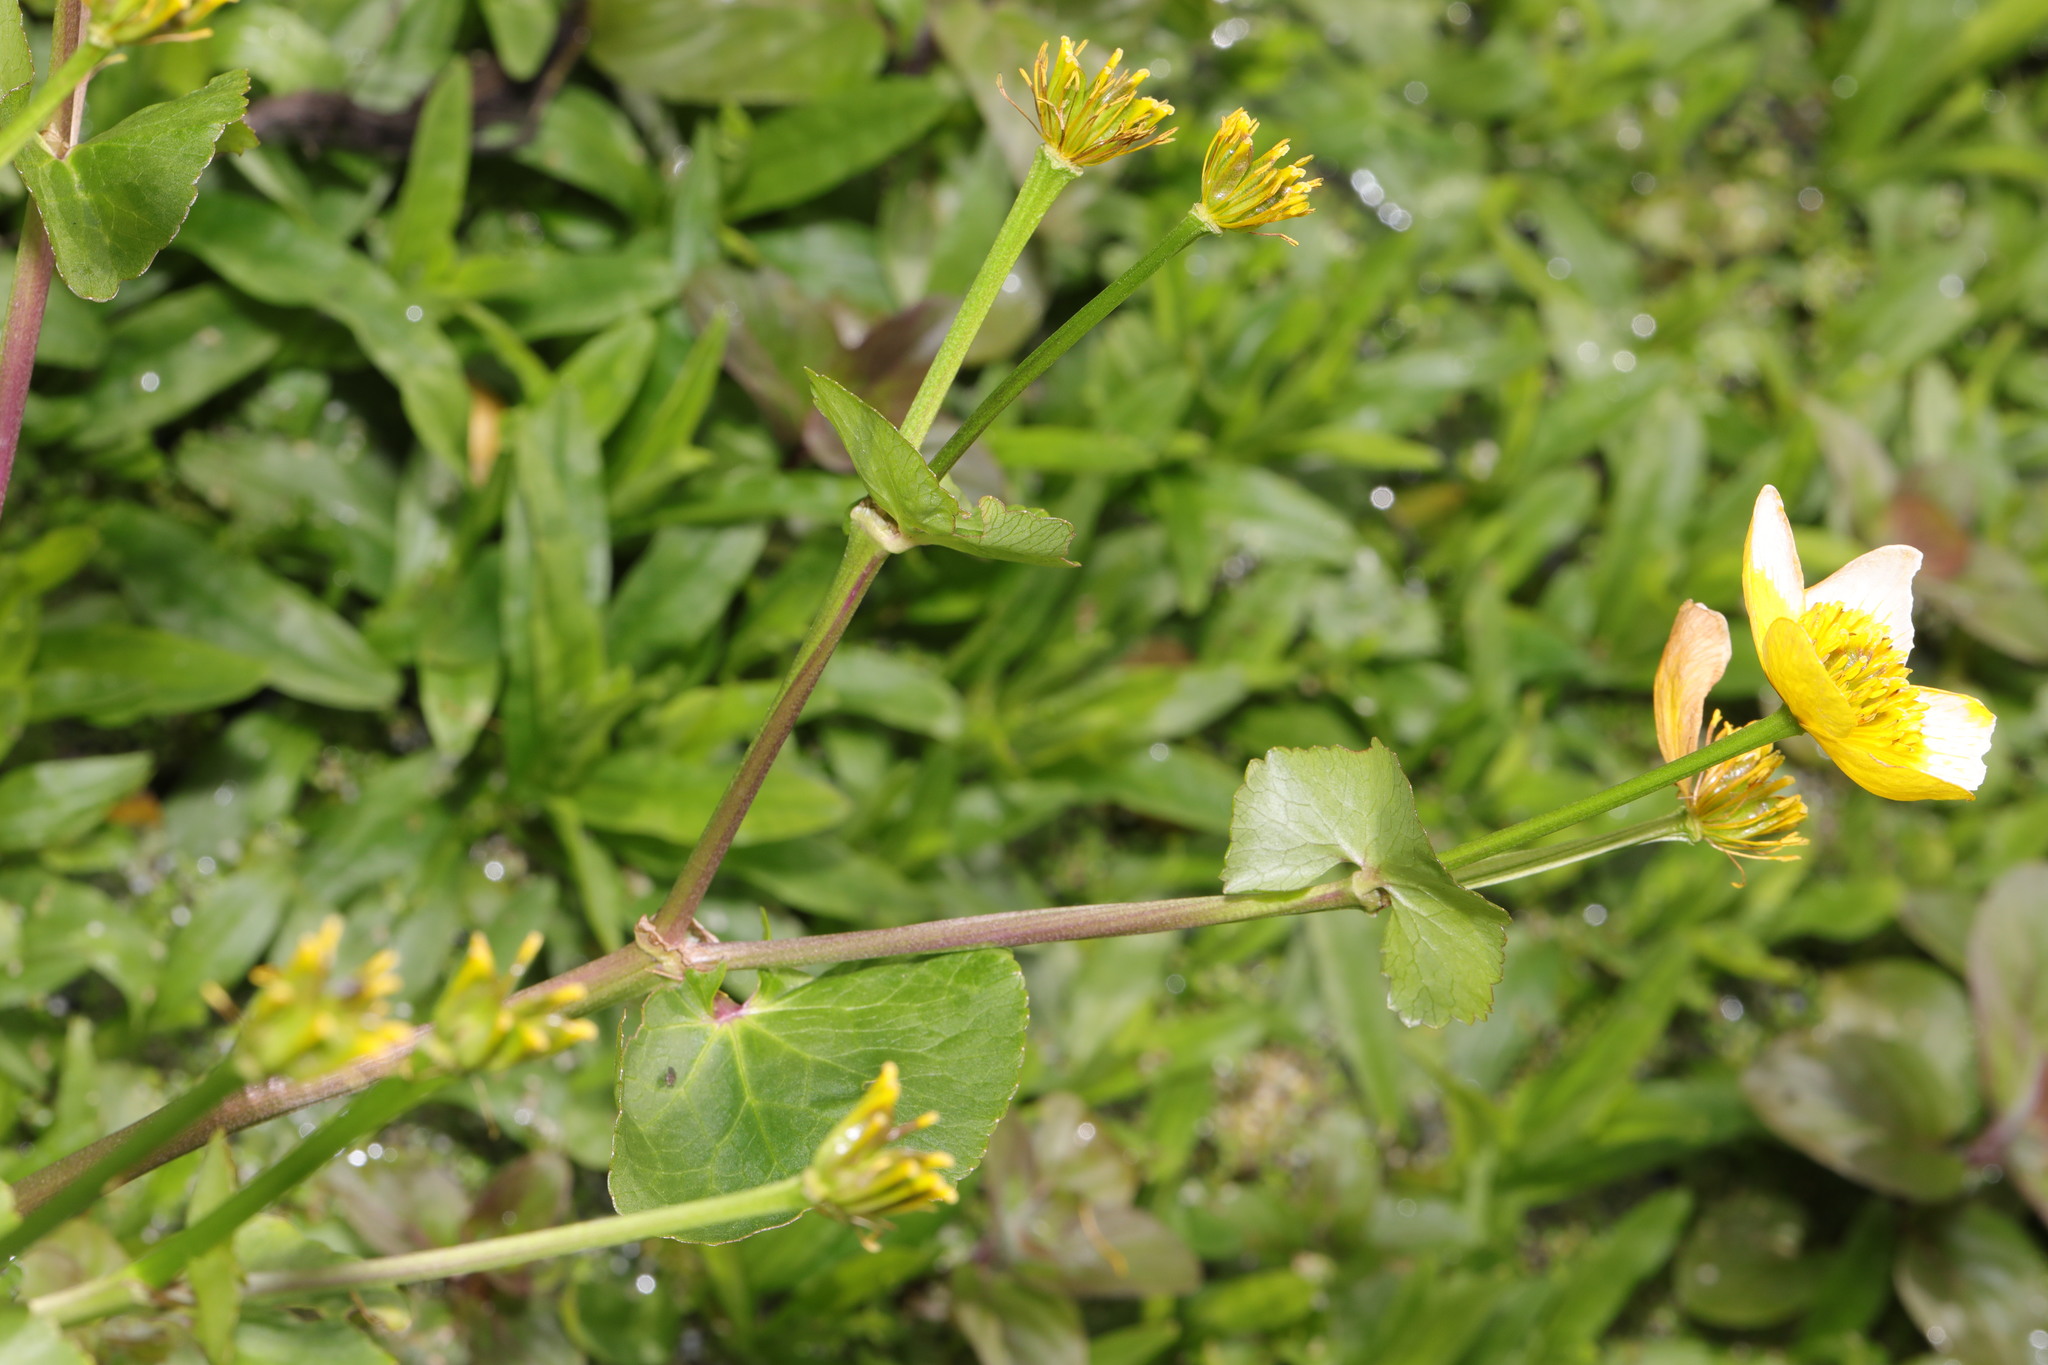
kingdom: Plantae
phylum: Tracheophyta
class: Magnoliopsida
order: Ranunculales
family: Ranunculaceae
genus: Caltha
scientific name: Caltha palustris
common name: Marsh marigold
